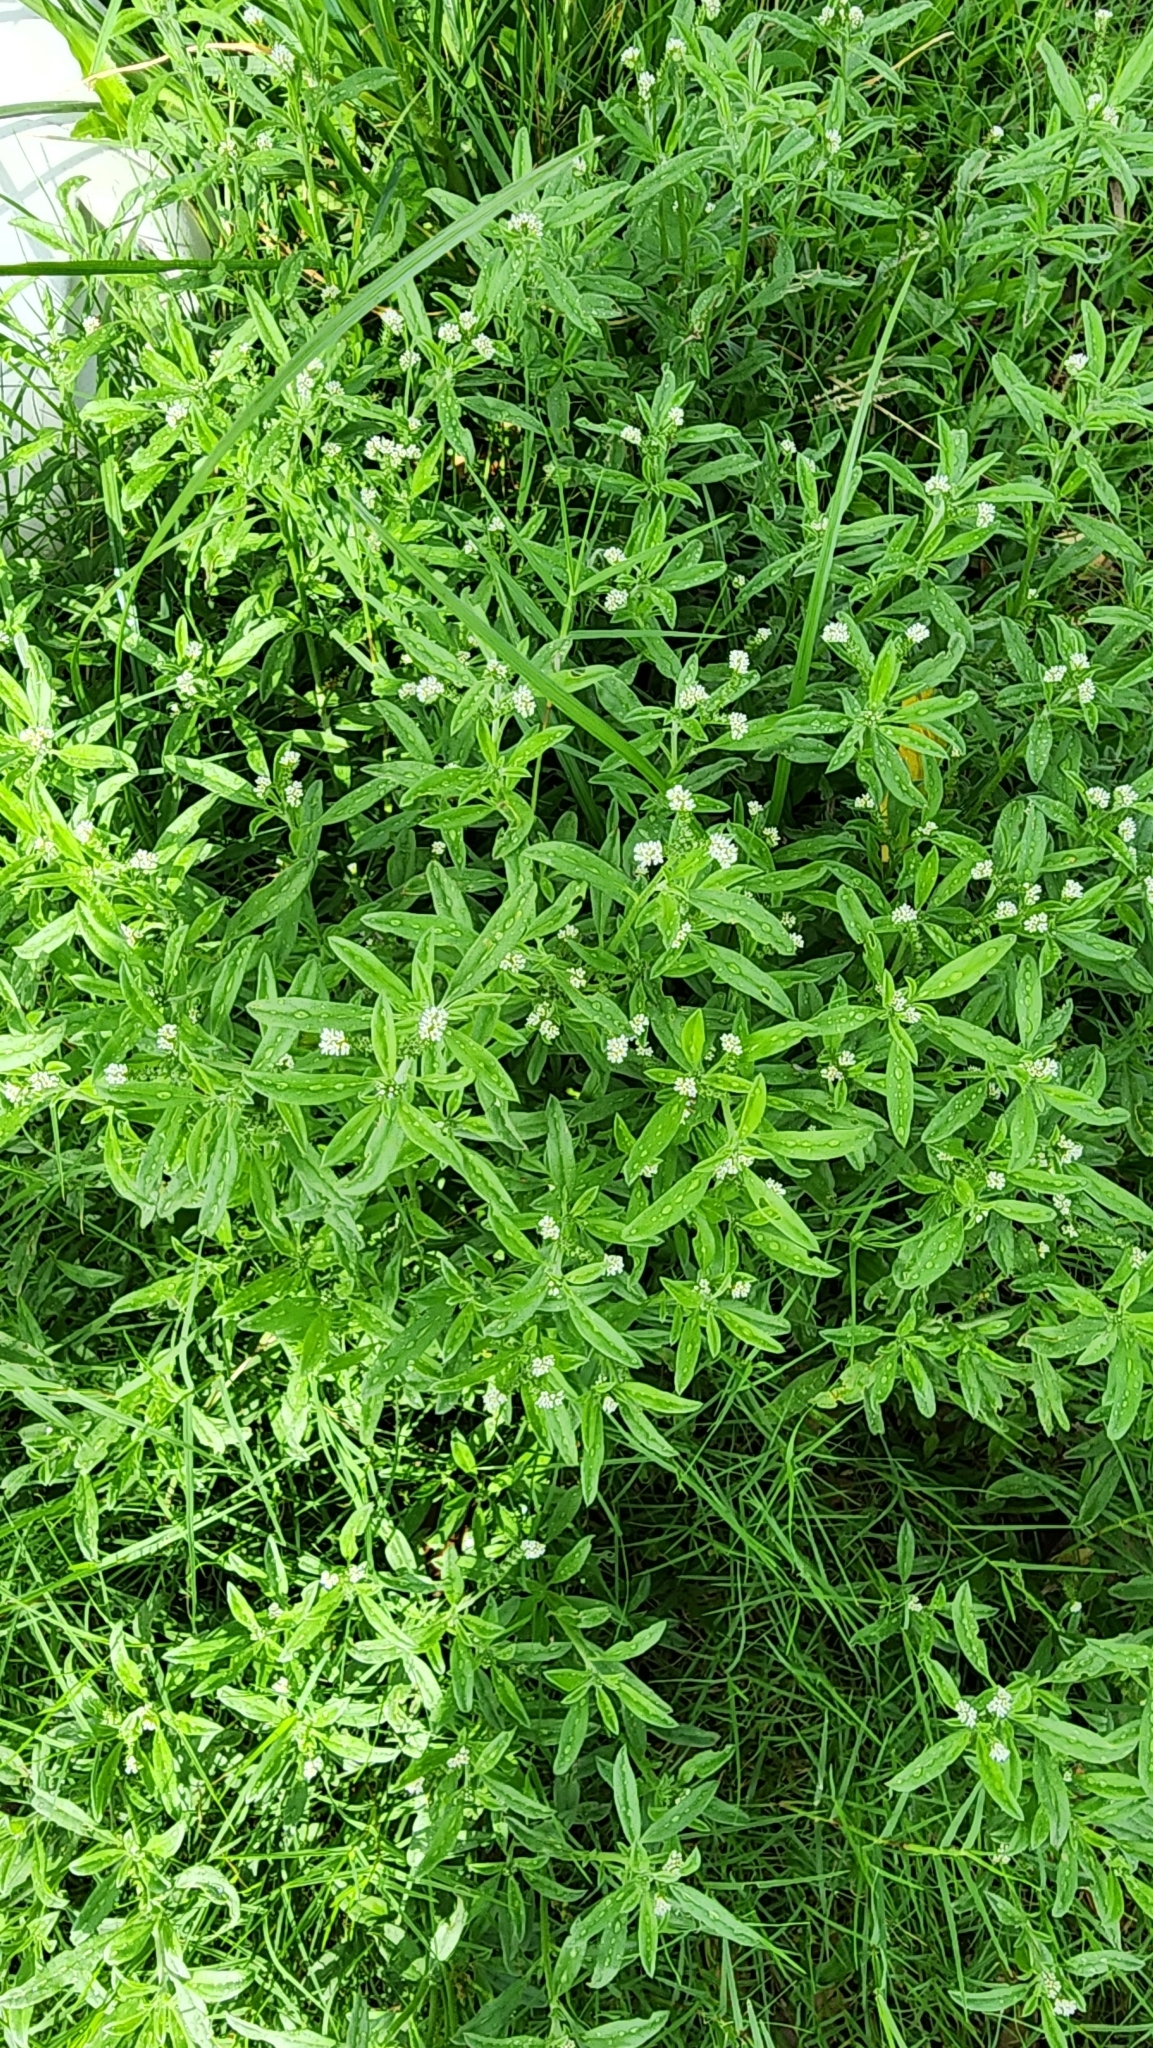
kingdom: Plantae
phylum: Tracheophyta
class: Magnoliopsida
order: Boraginales
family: Heliotropiaceae
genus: Euploca
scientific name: Euploca procumbens
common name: Fourspike heliotrope
